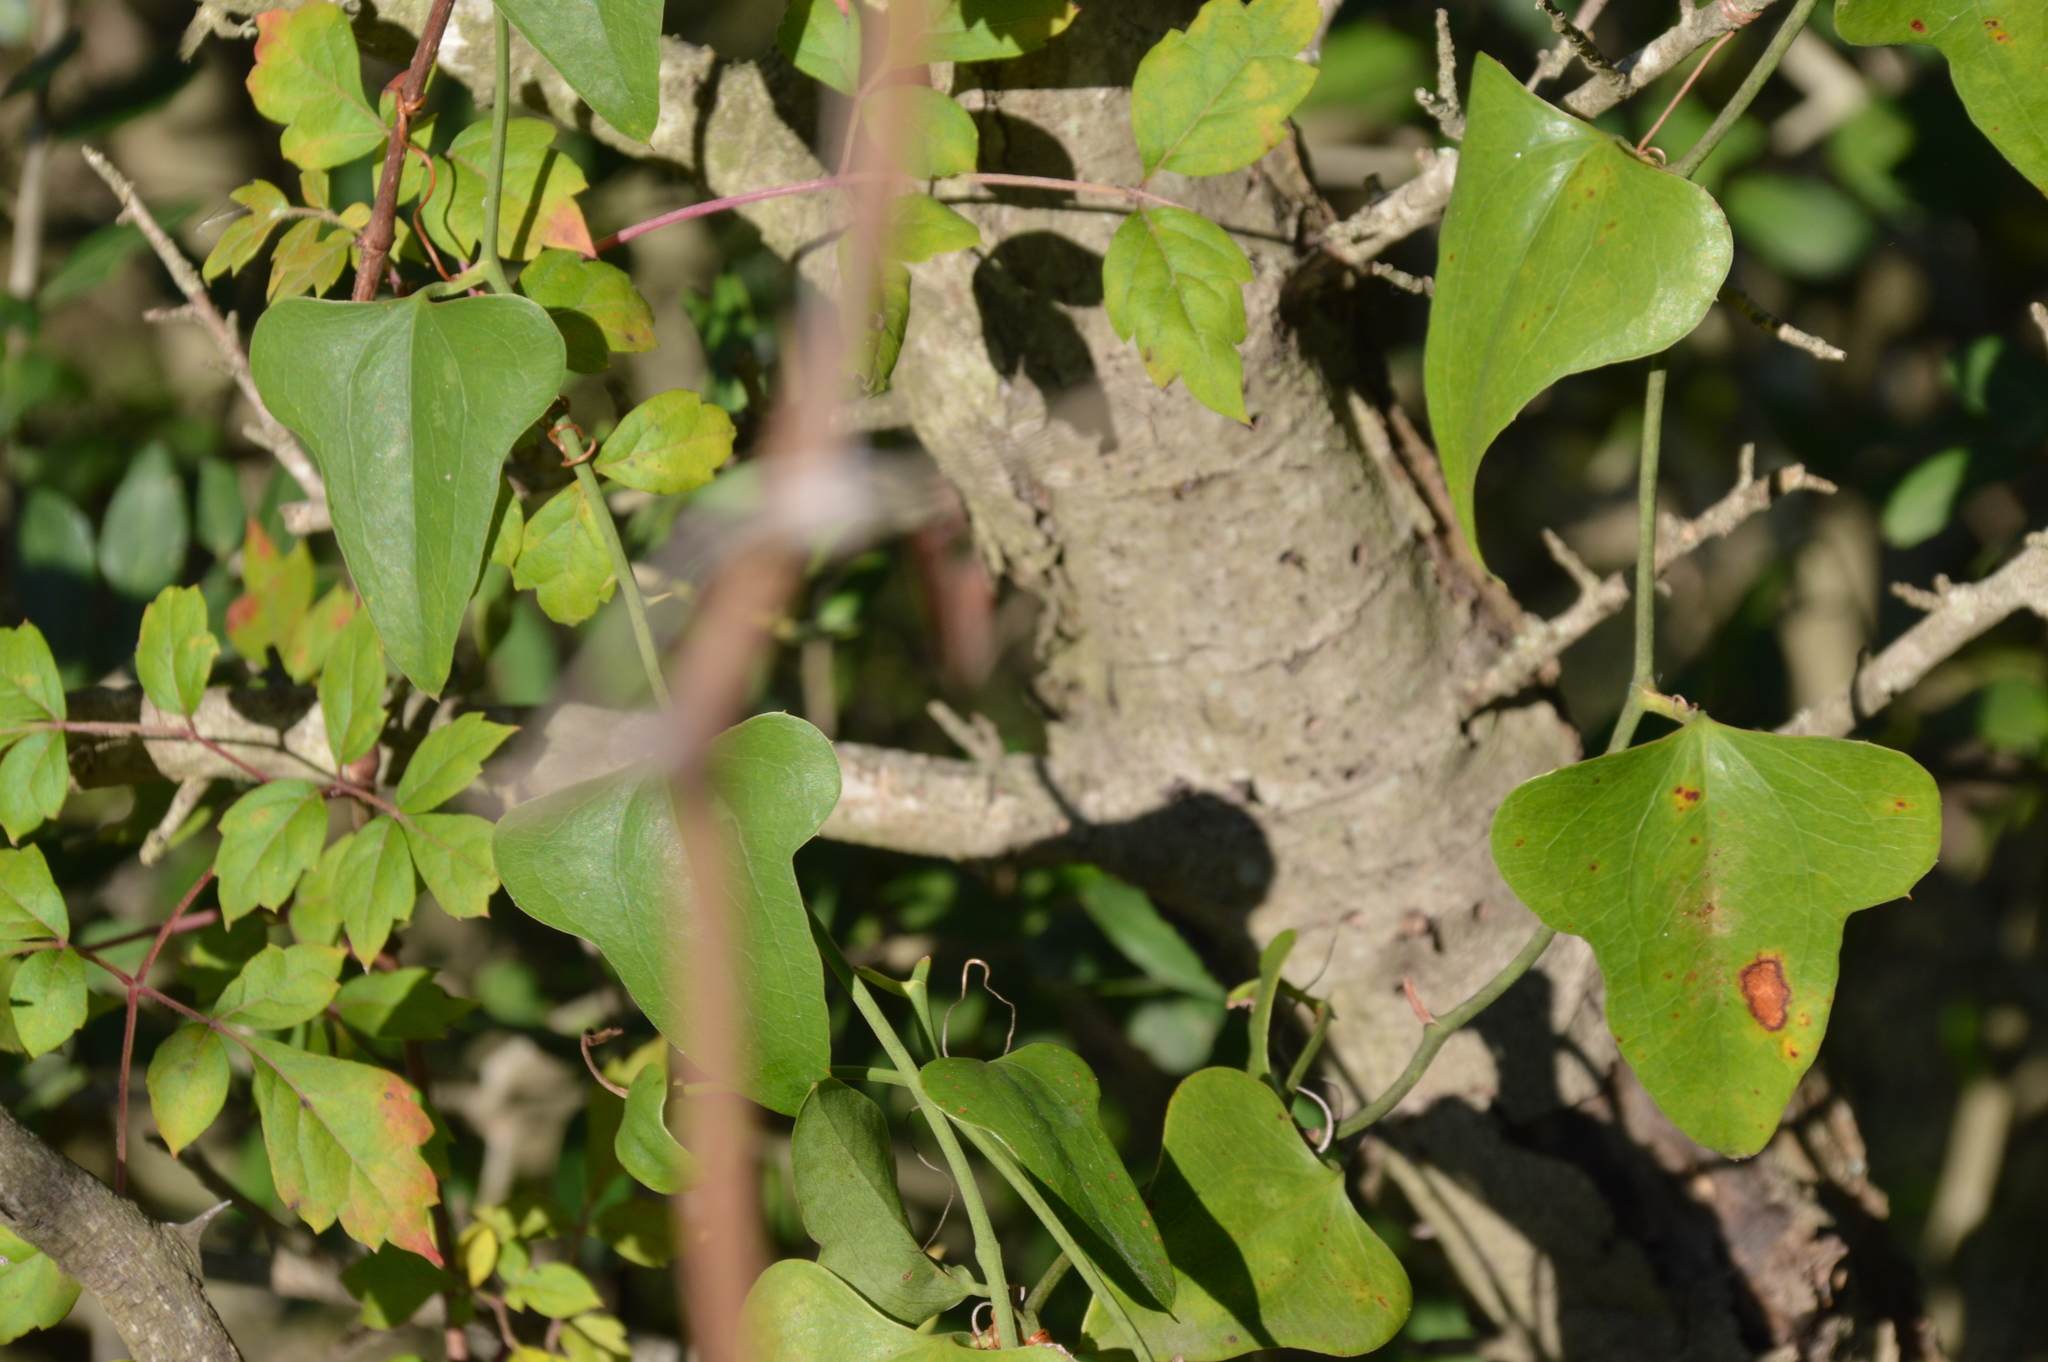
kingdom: Plantae
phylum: Tracheophyta
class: Liliopsida
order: Liliales
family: Smilacaceae
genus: Smilax
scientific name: Smilax bona-nox
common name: Catbrier
